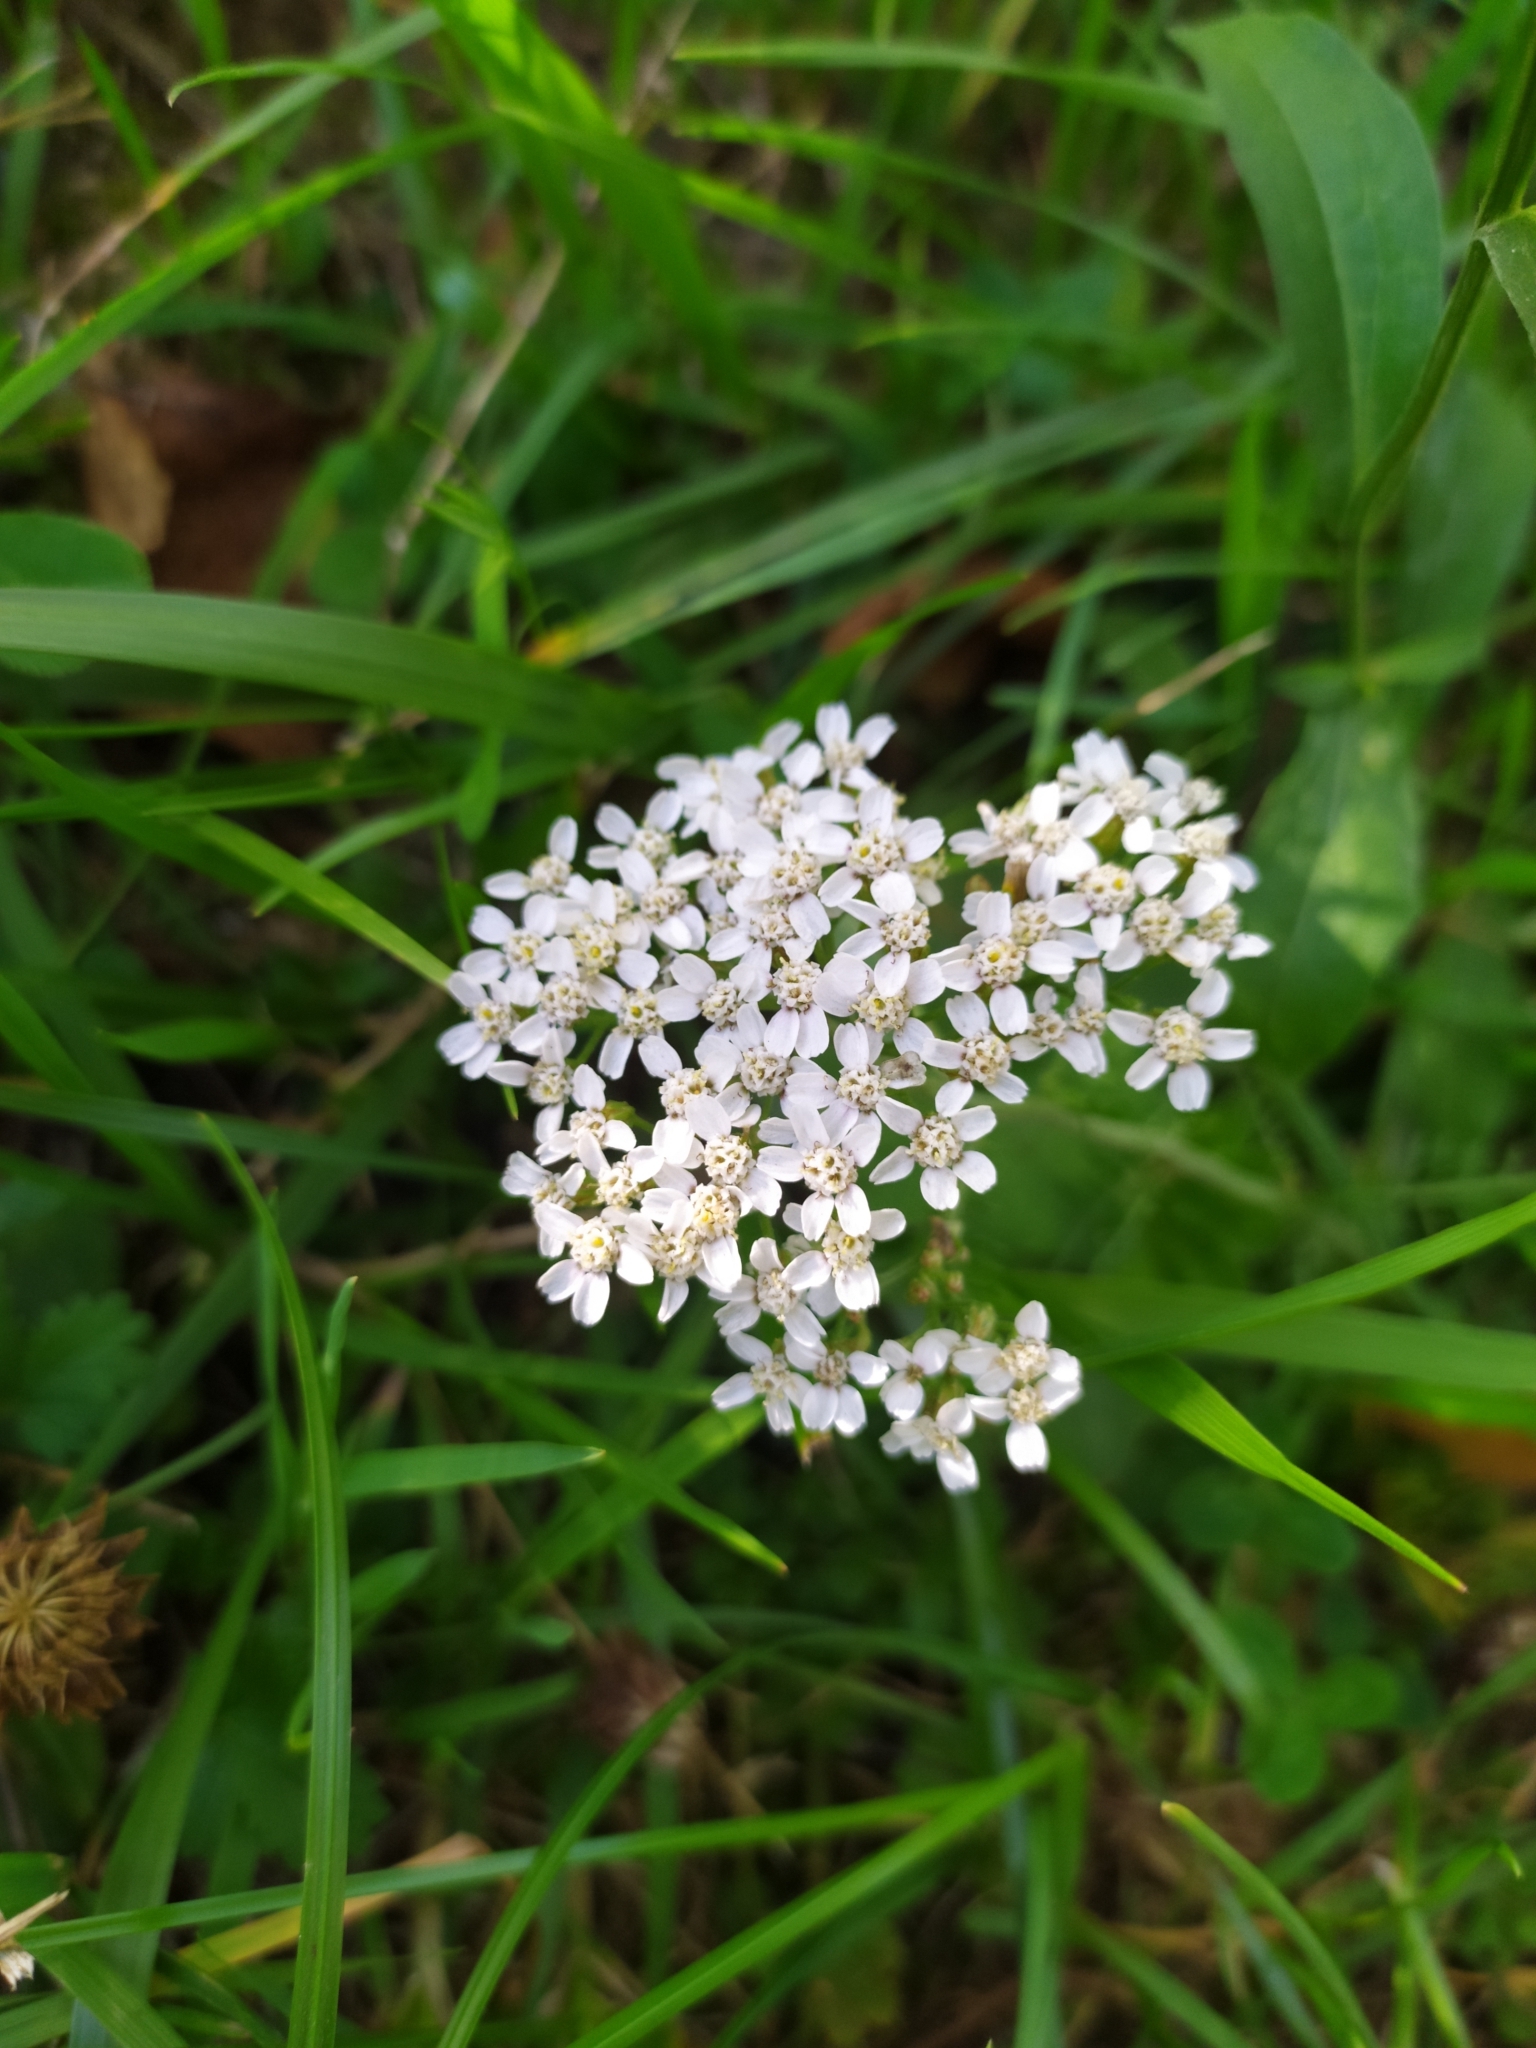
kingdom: Plantae
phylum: Tracheophyta
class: Magnoliopsida
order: Asterales
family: Asteraceae
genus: Achillea
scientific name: Achillea millefolium
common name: Yarrow
